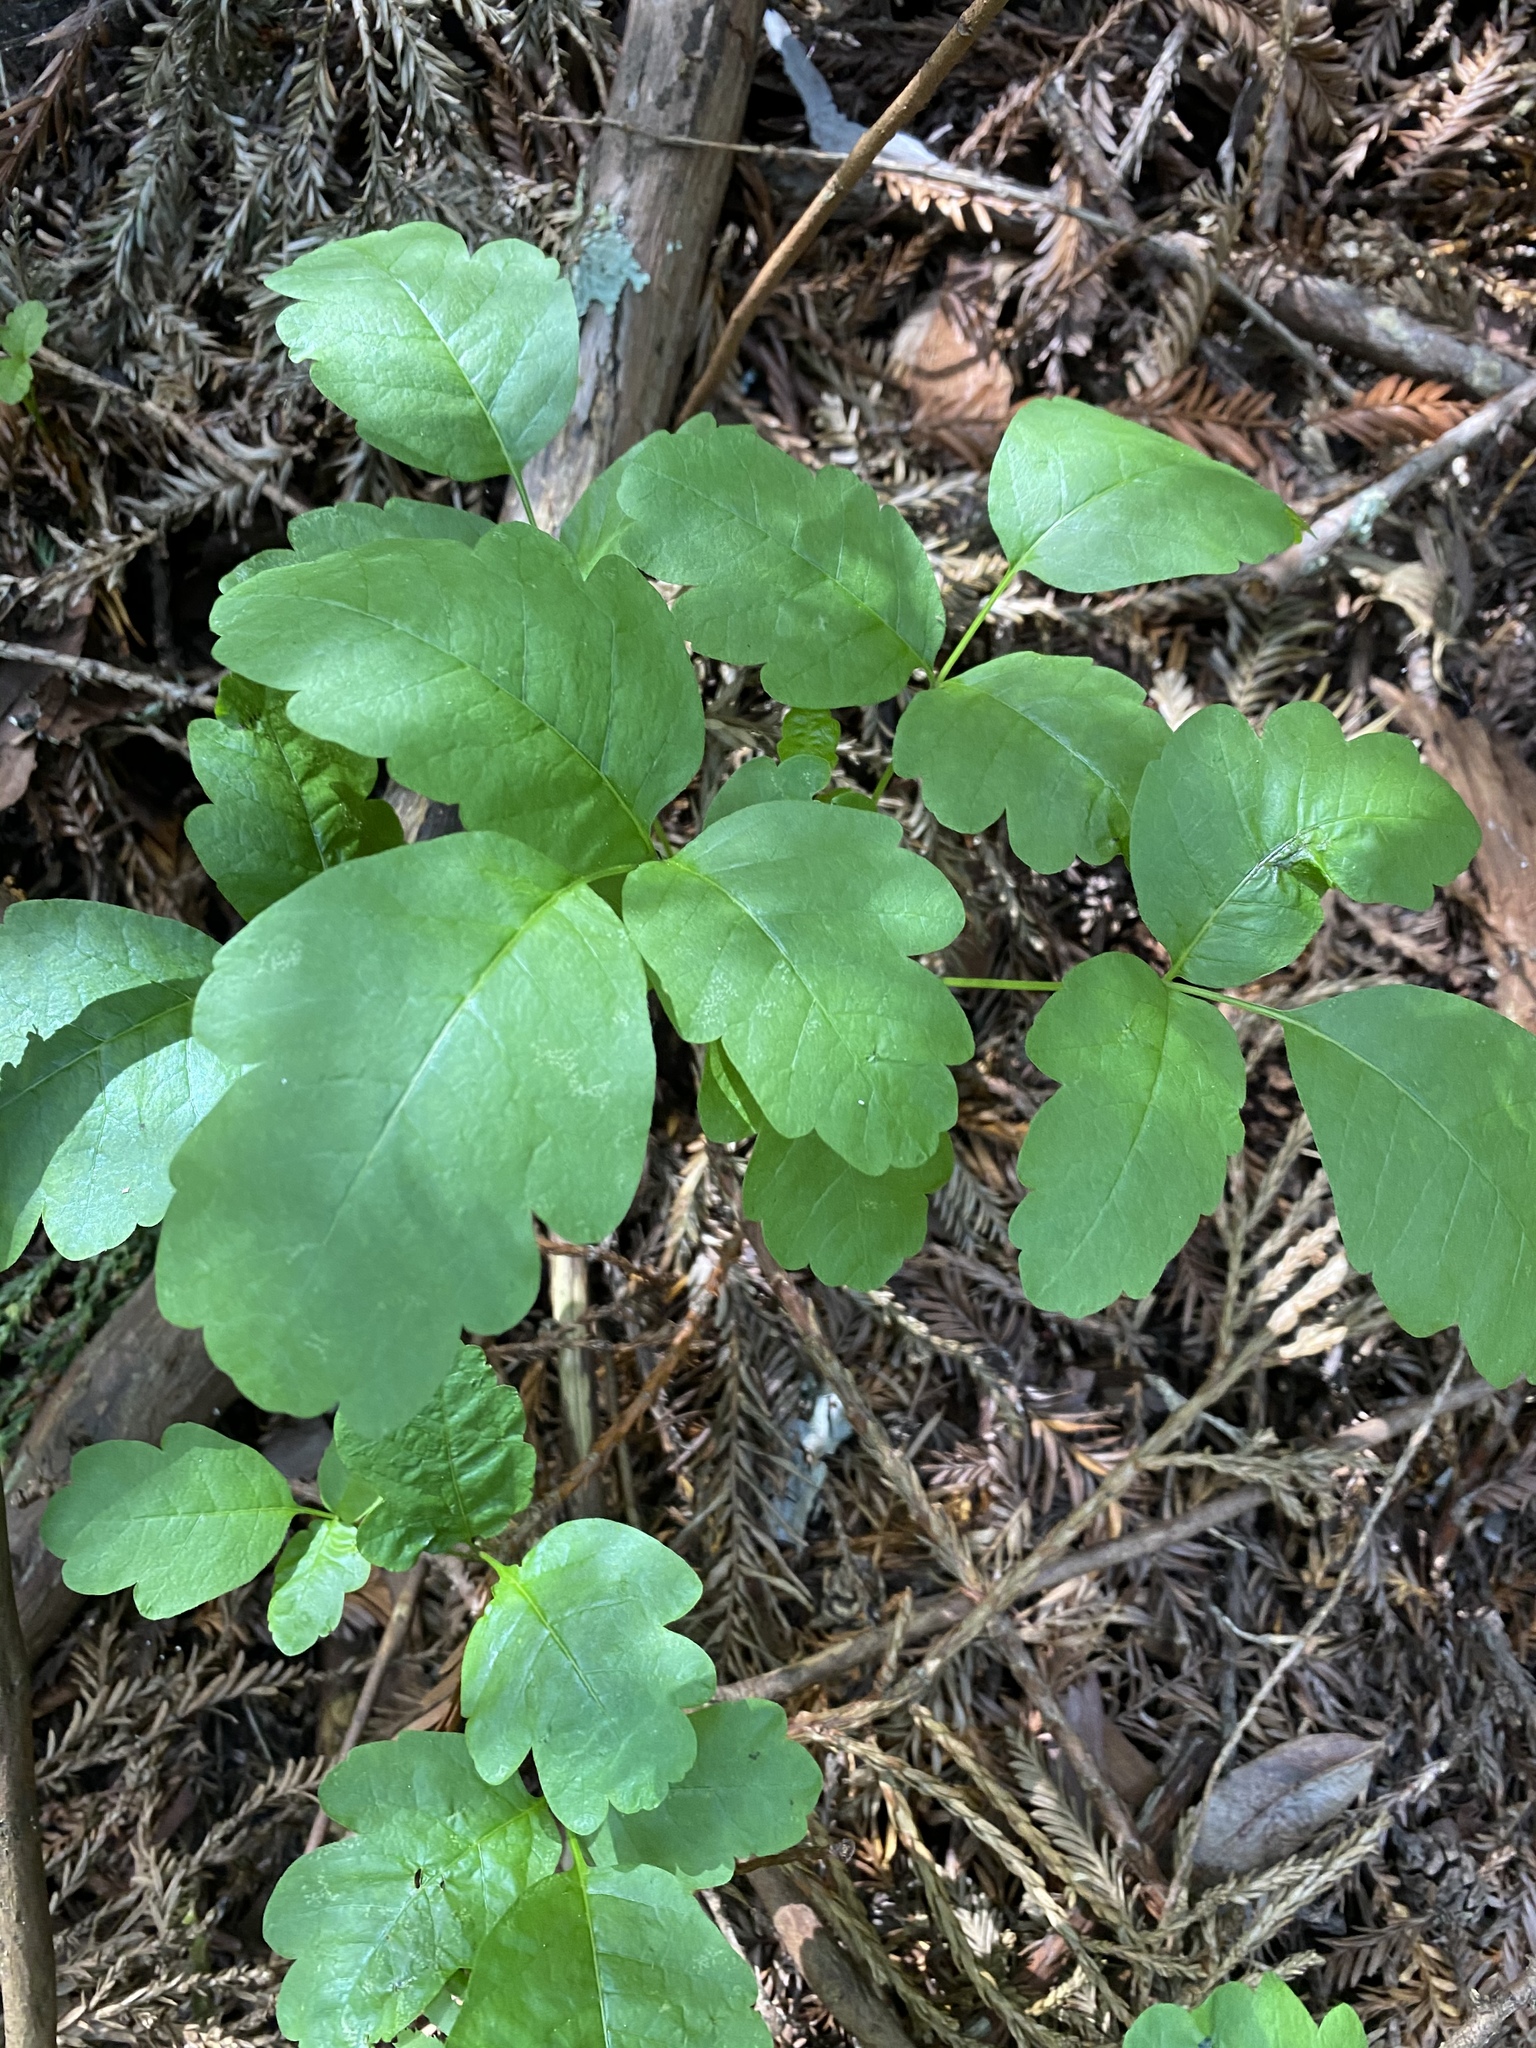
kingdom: Plantae
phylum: Tracheophyta
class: Magnoliopsida
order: Sapindales
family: Anacardiaceae
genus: Toxicodendron
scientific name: Toxicodendron diversilobum
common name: Pacific poison-oak
